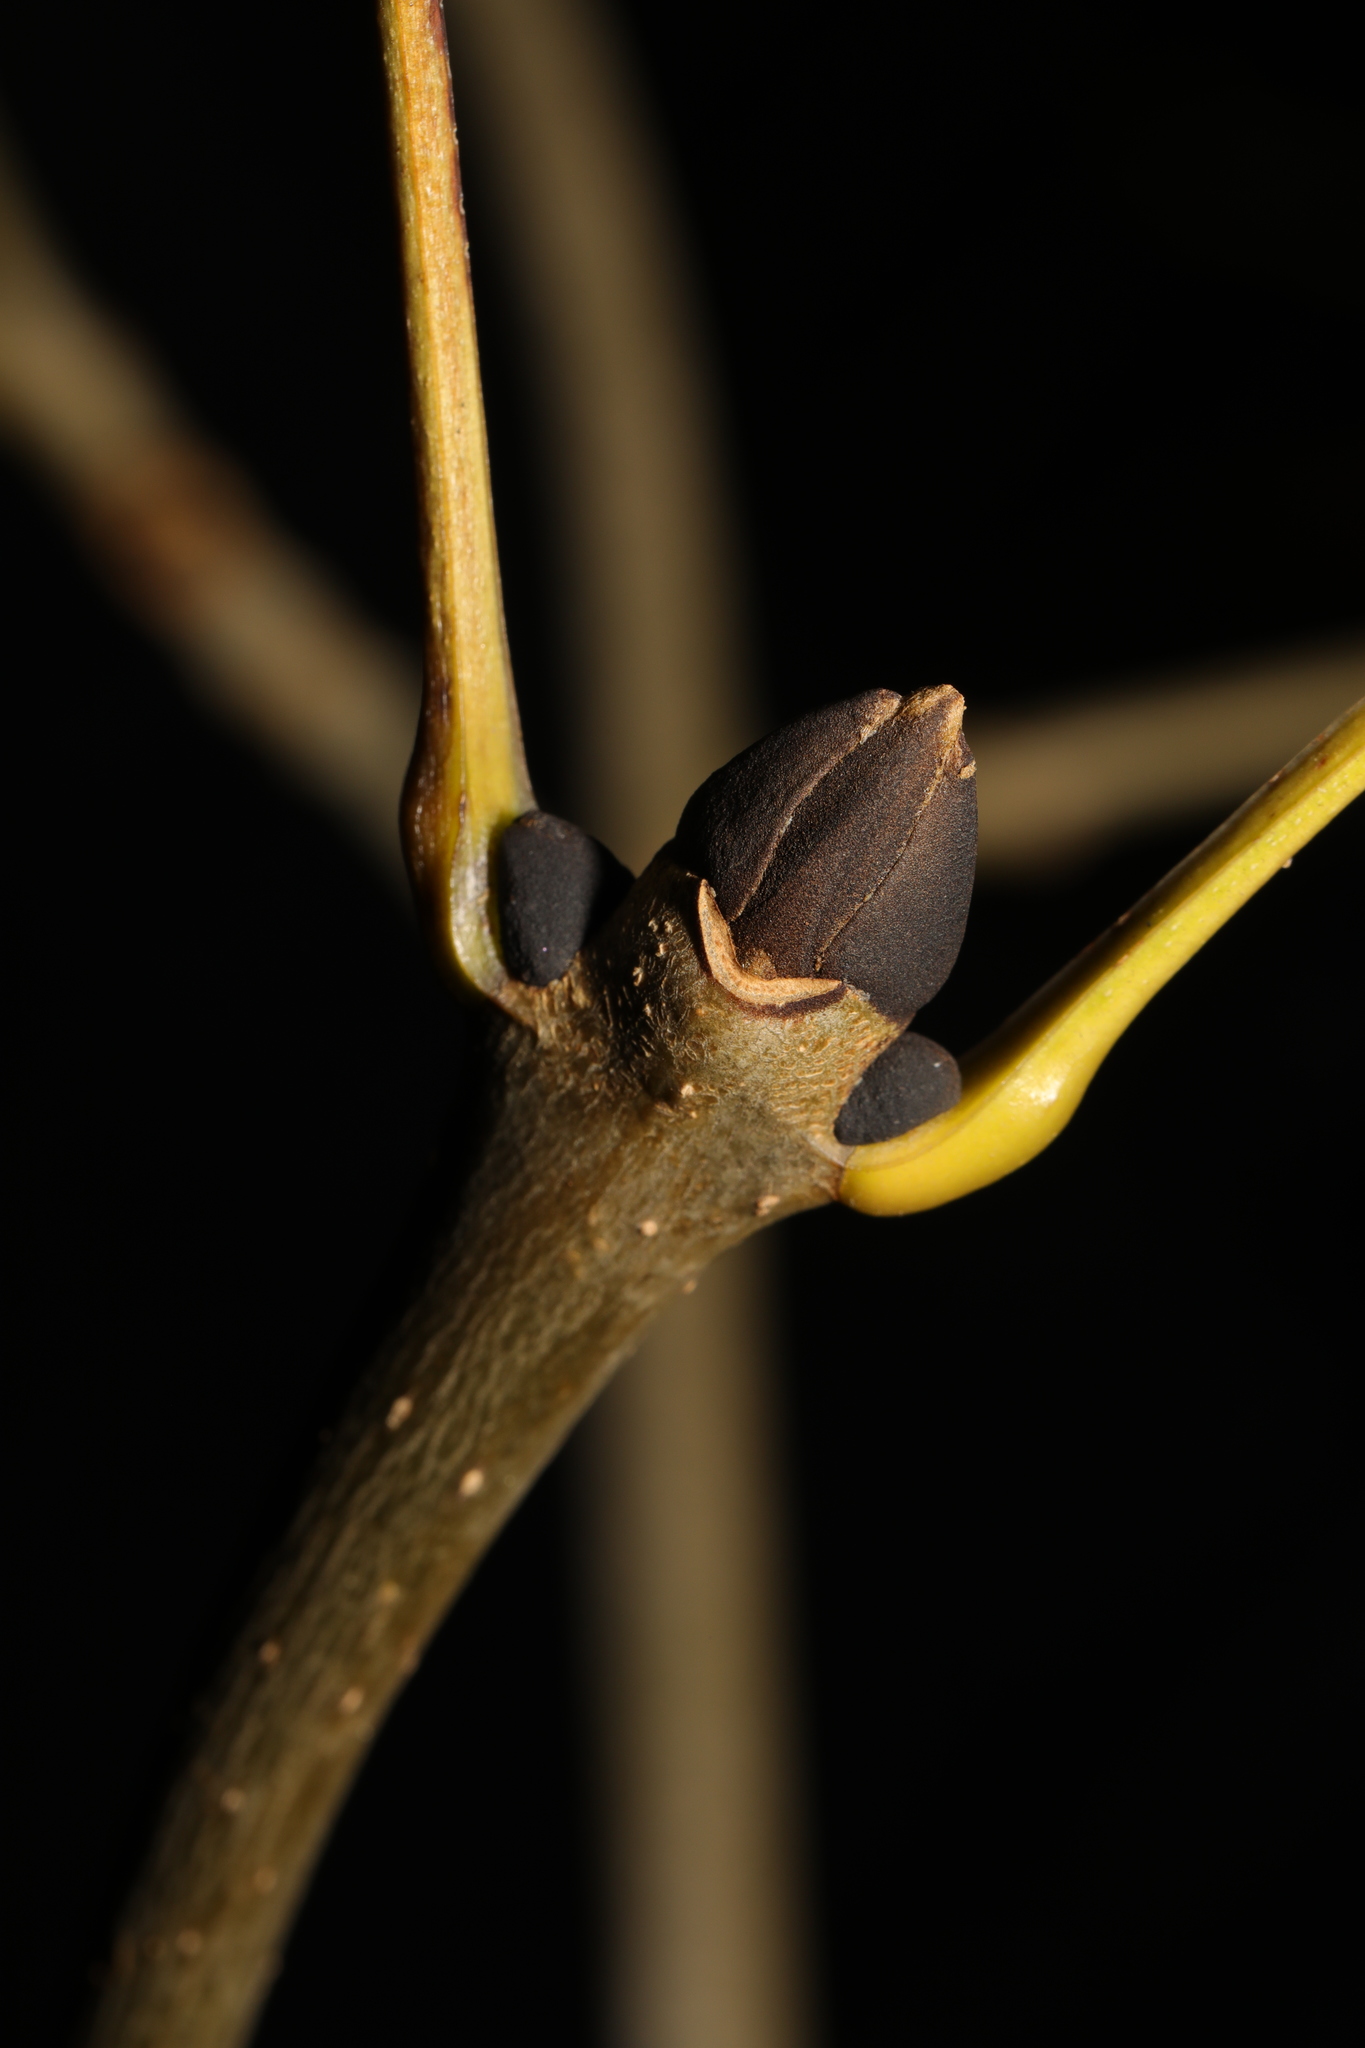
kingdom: Plantae
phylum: Tracheophyta
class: Magnoliopsida
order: Lamiales
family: Oleaceae
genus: Fraxinus
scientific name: Fraxinus excelsior
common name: European ash
